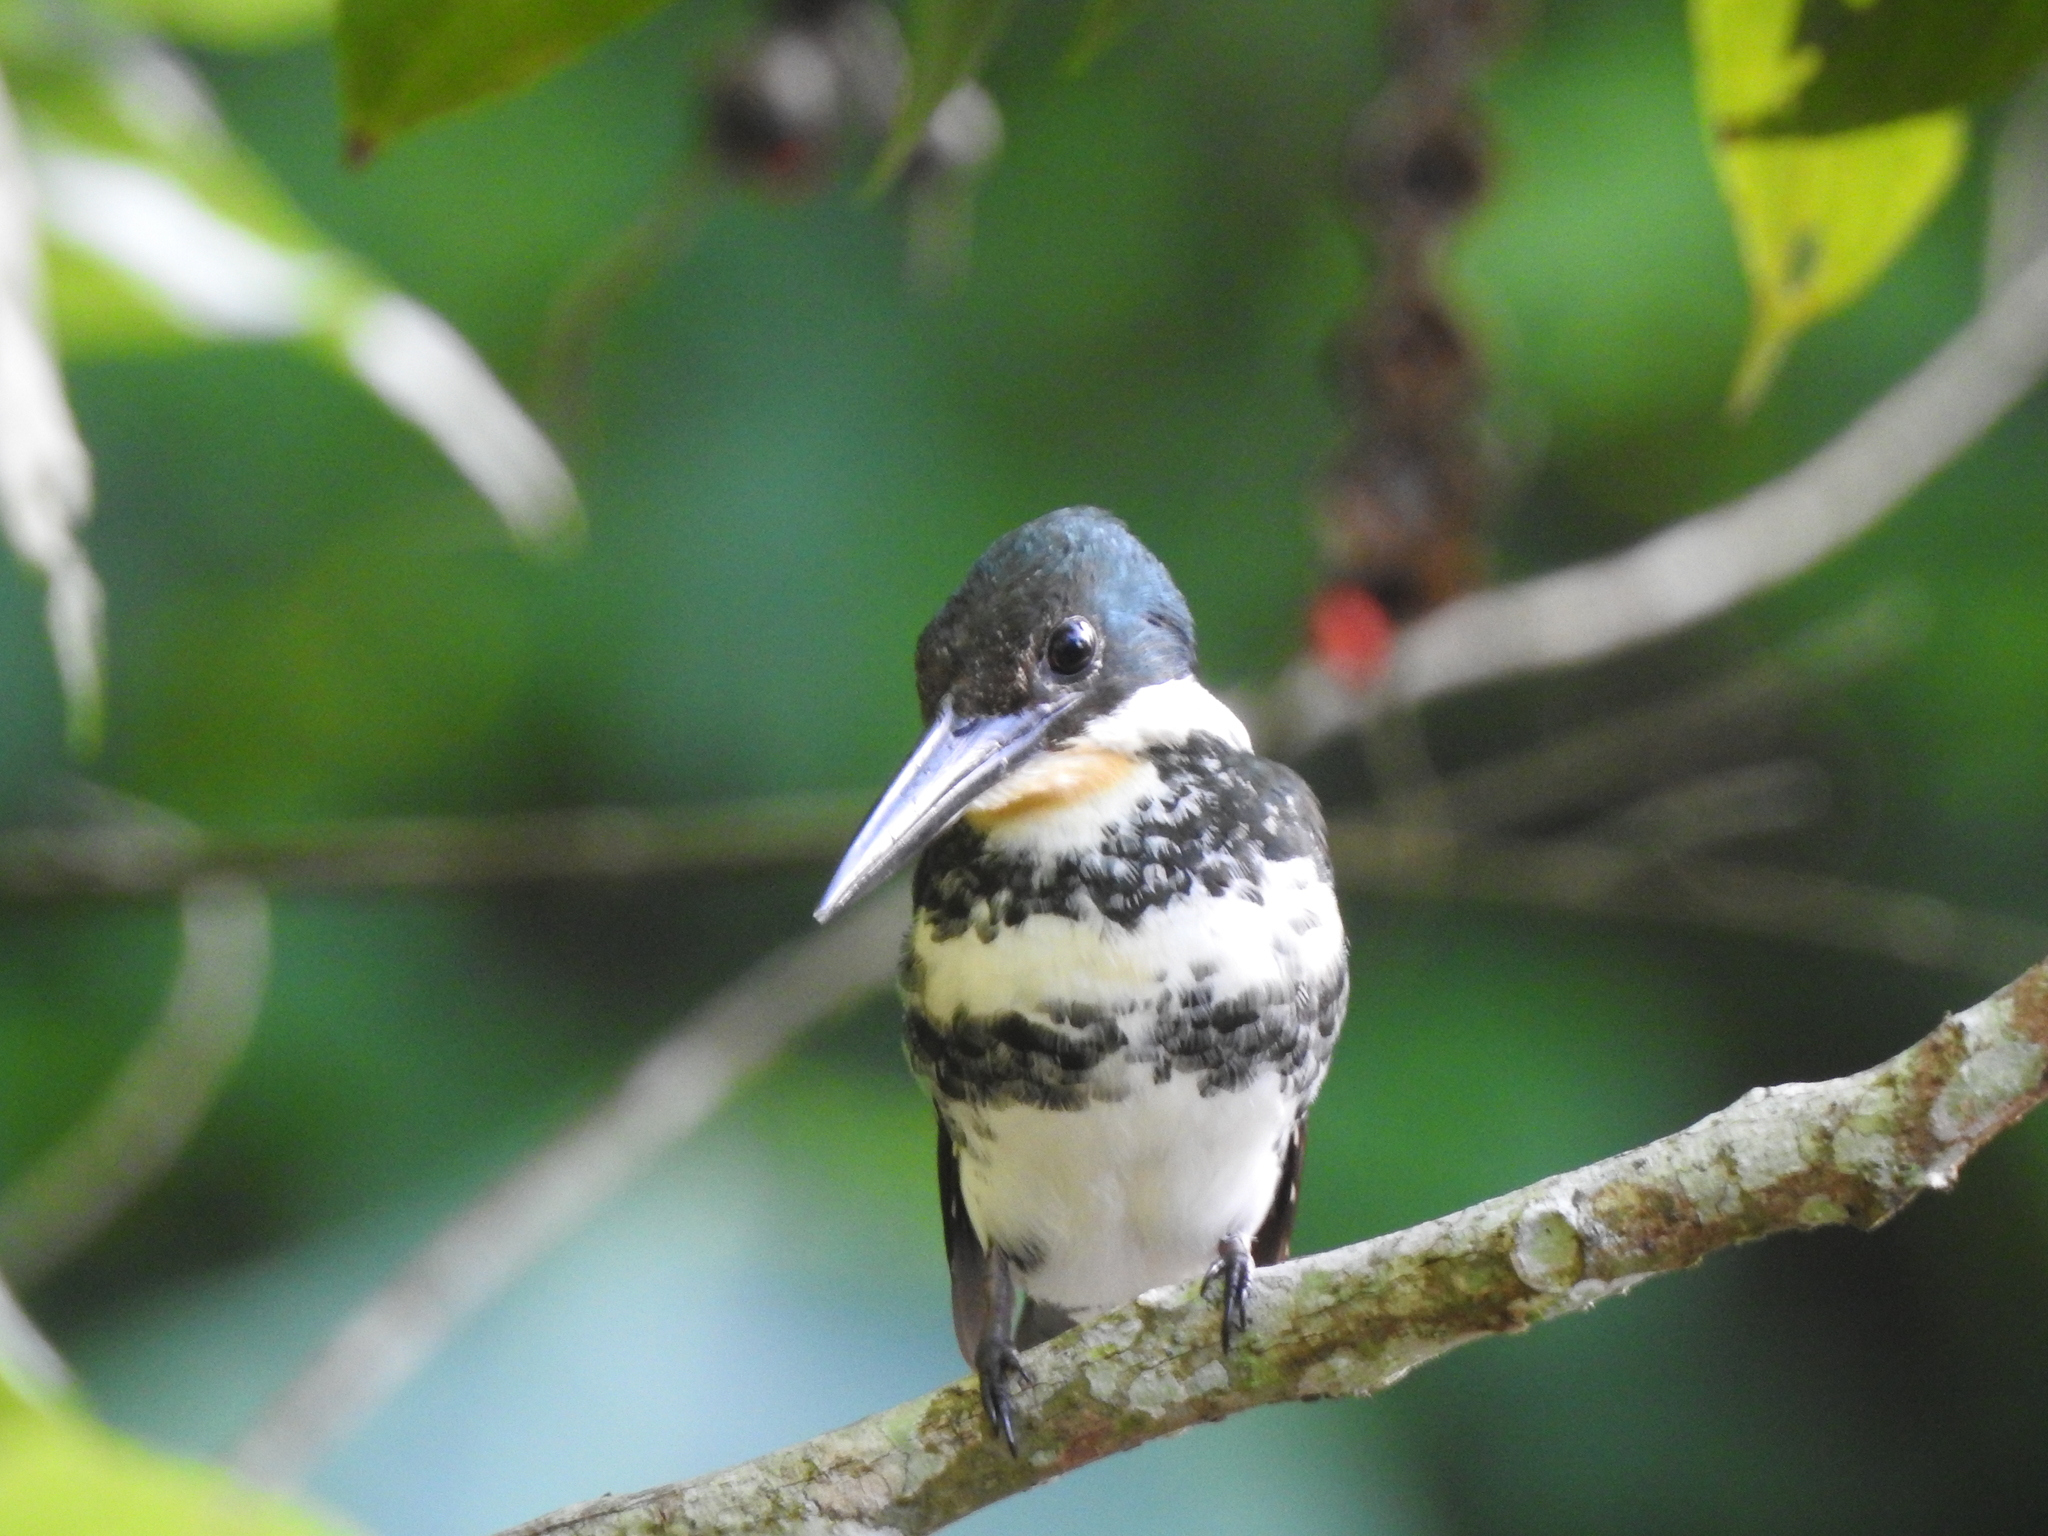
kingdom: Animalia
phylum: Chordata
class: Aves
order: Coraciiformes
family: Alcedinidae
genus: Chloroceryle
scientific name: Chloroceryle americana
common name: Green kingfisher
